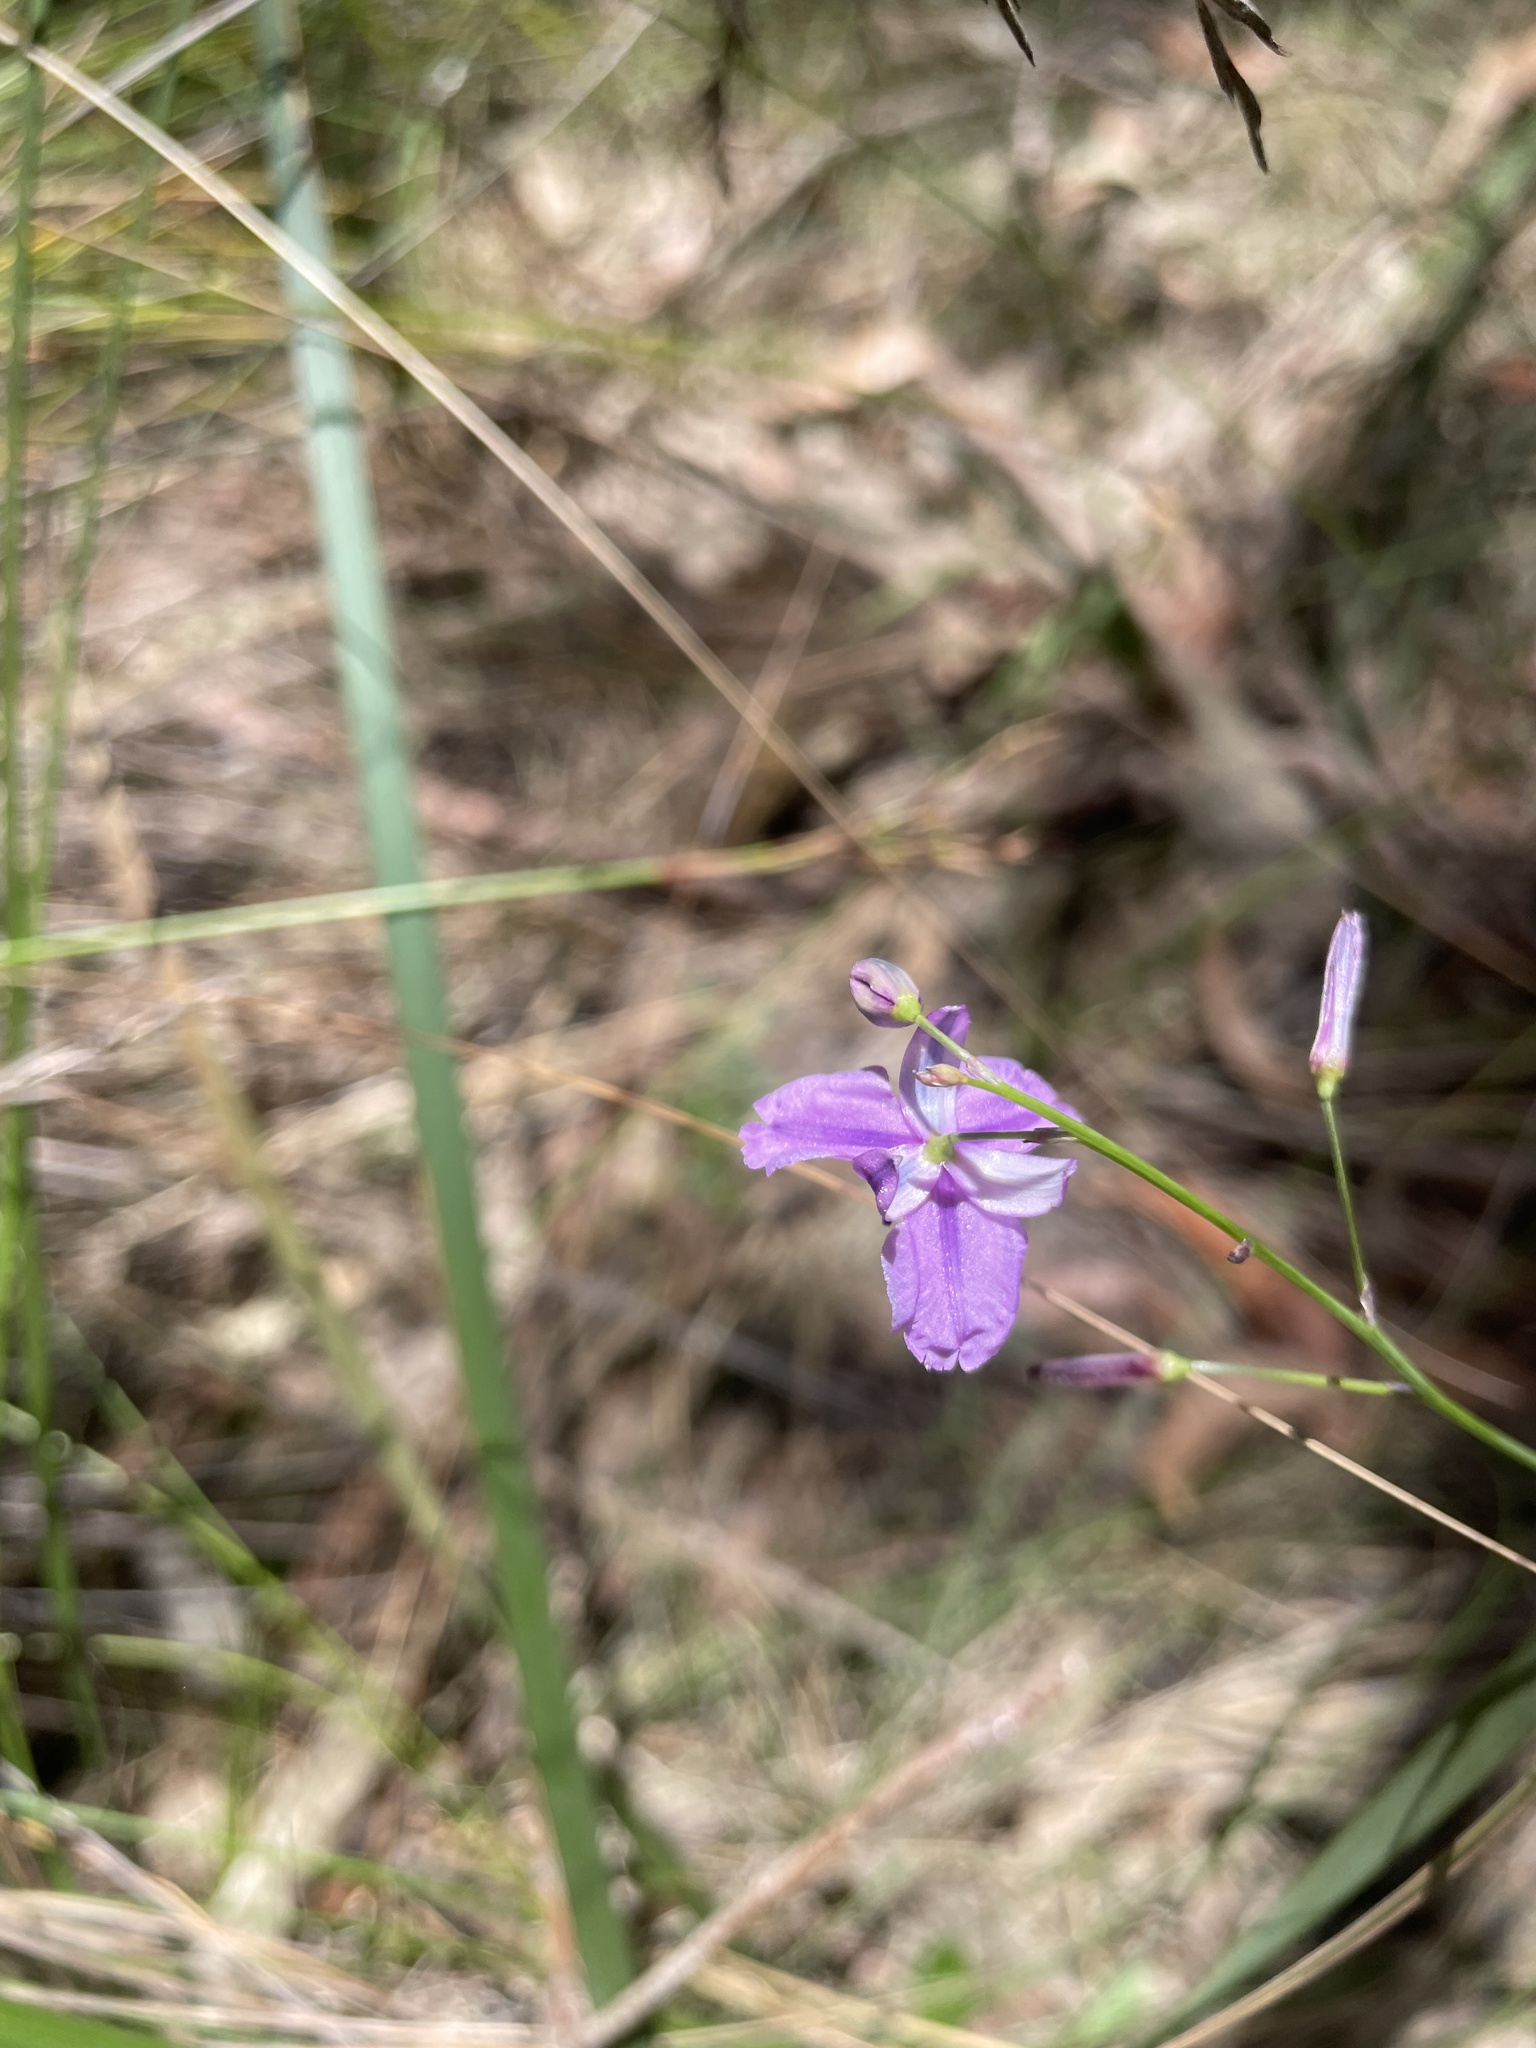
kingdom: Plantae
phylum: Tracheophyta
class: Liliopsida
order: Asparagales
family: Asparagaceae
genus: Arthropodium
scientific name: Arthropodium strictum
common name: Chocolate-lily
